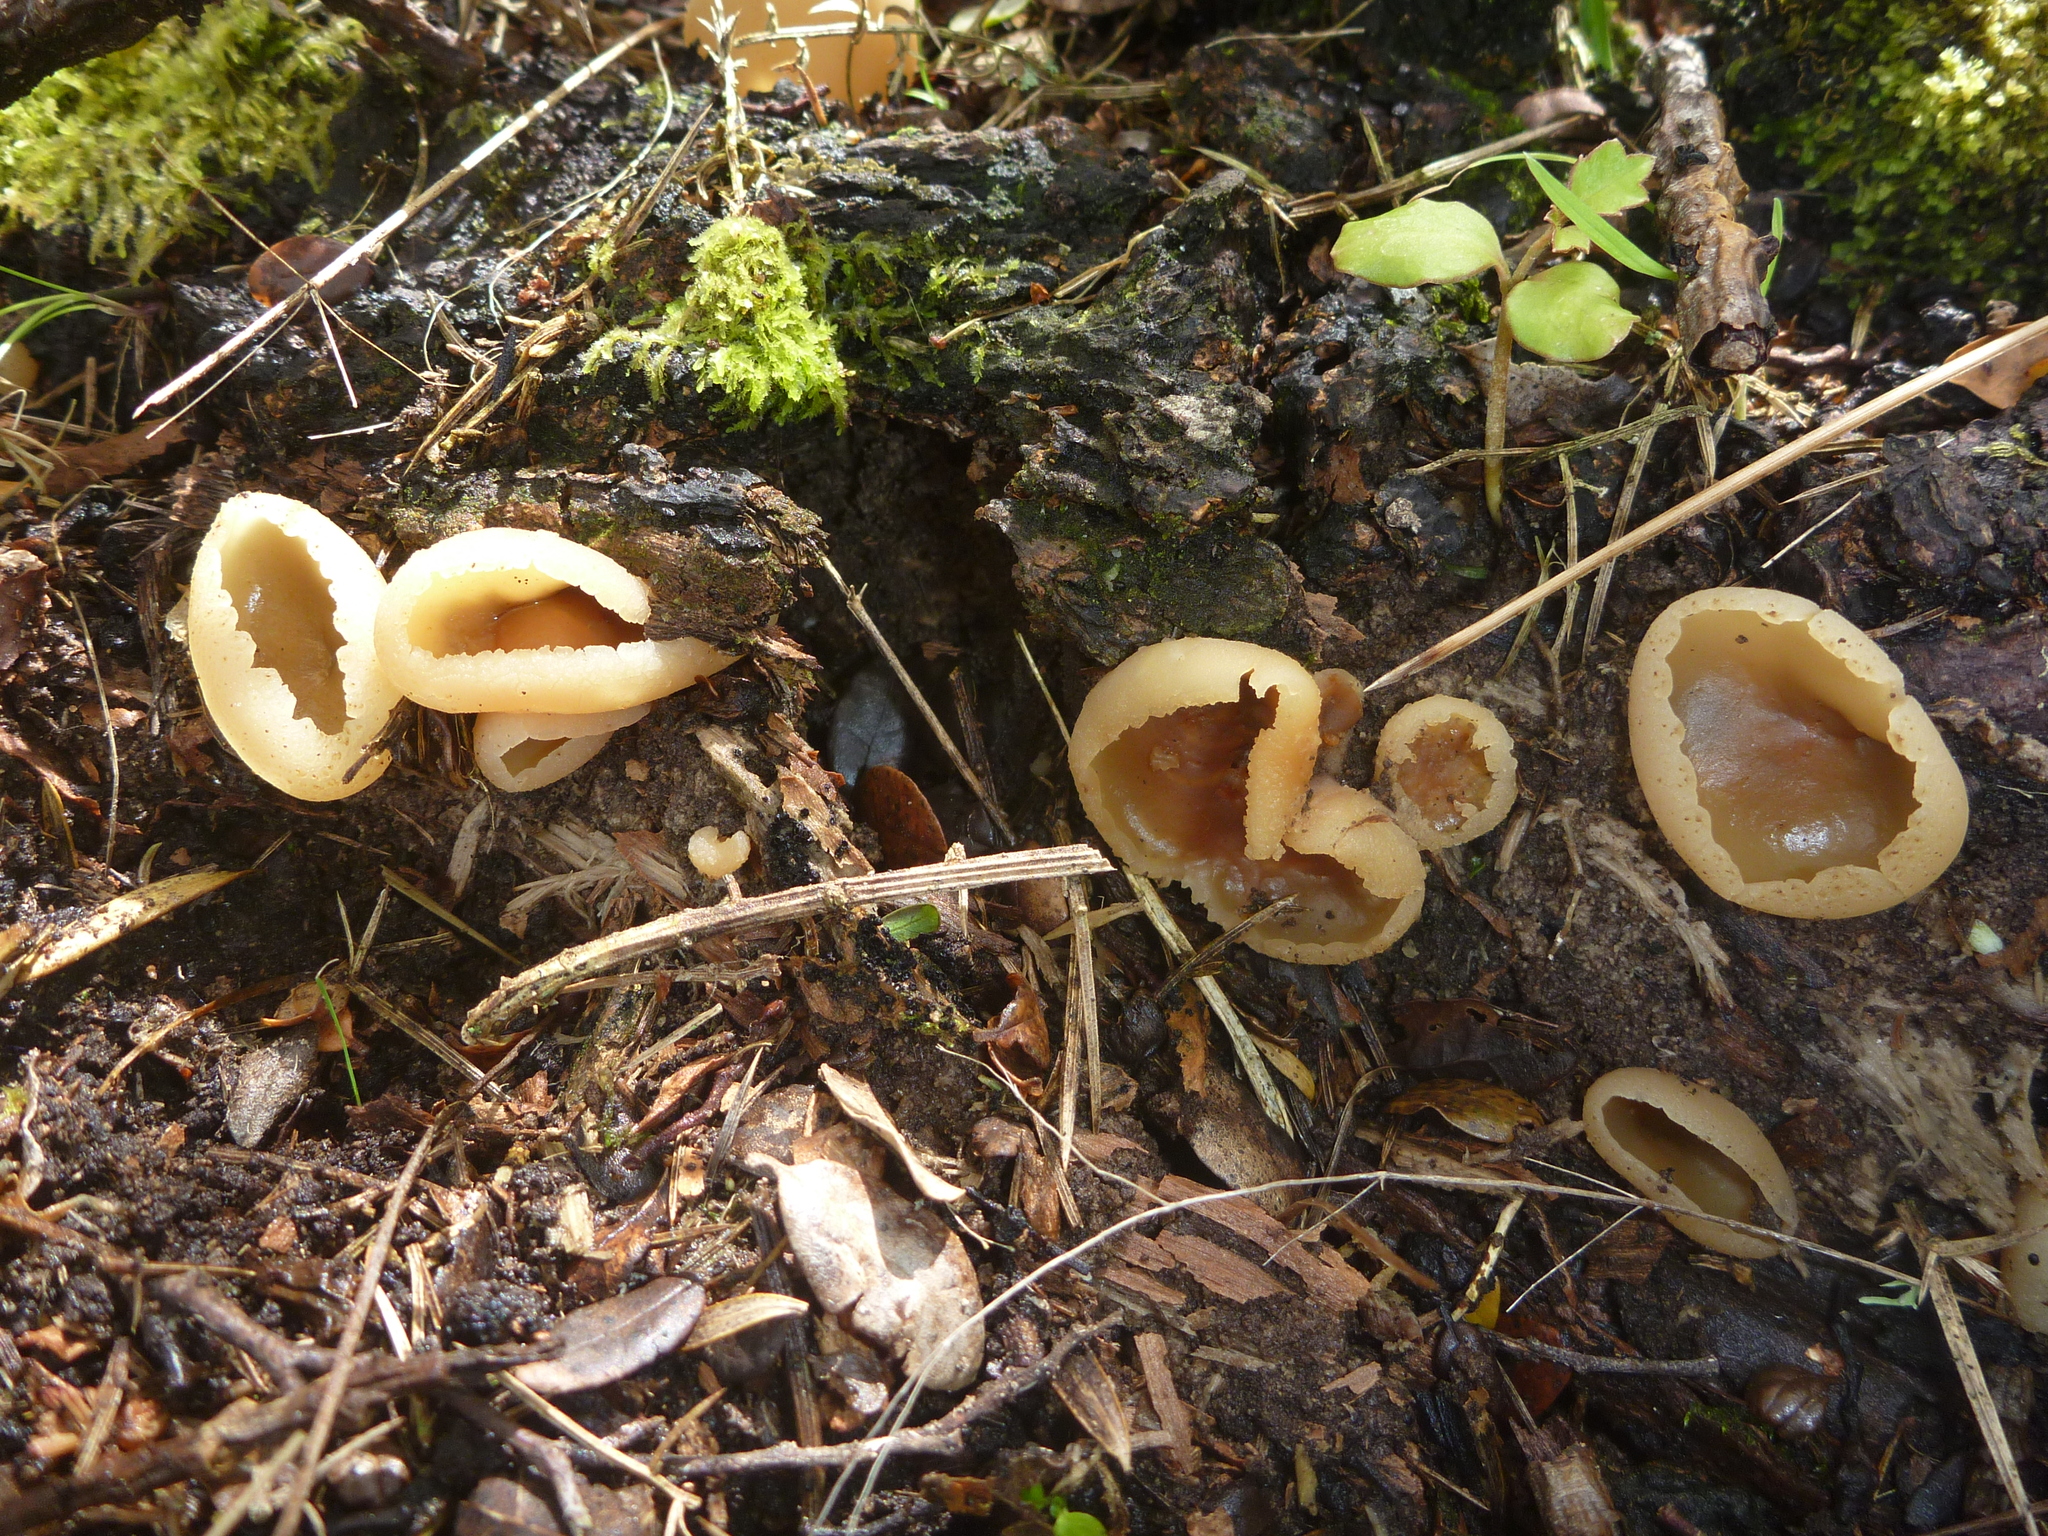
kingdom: Fungi
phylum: Ascomycota
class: Pezizomycetes
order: Pezizales
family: Pezizaceae
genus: Peziza
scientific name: Peziza varia
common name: Layered cup
